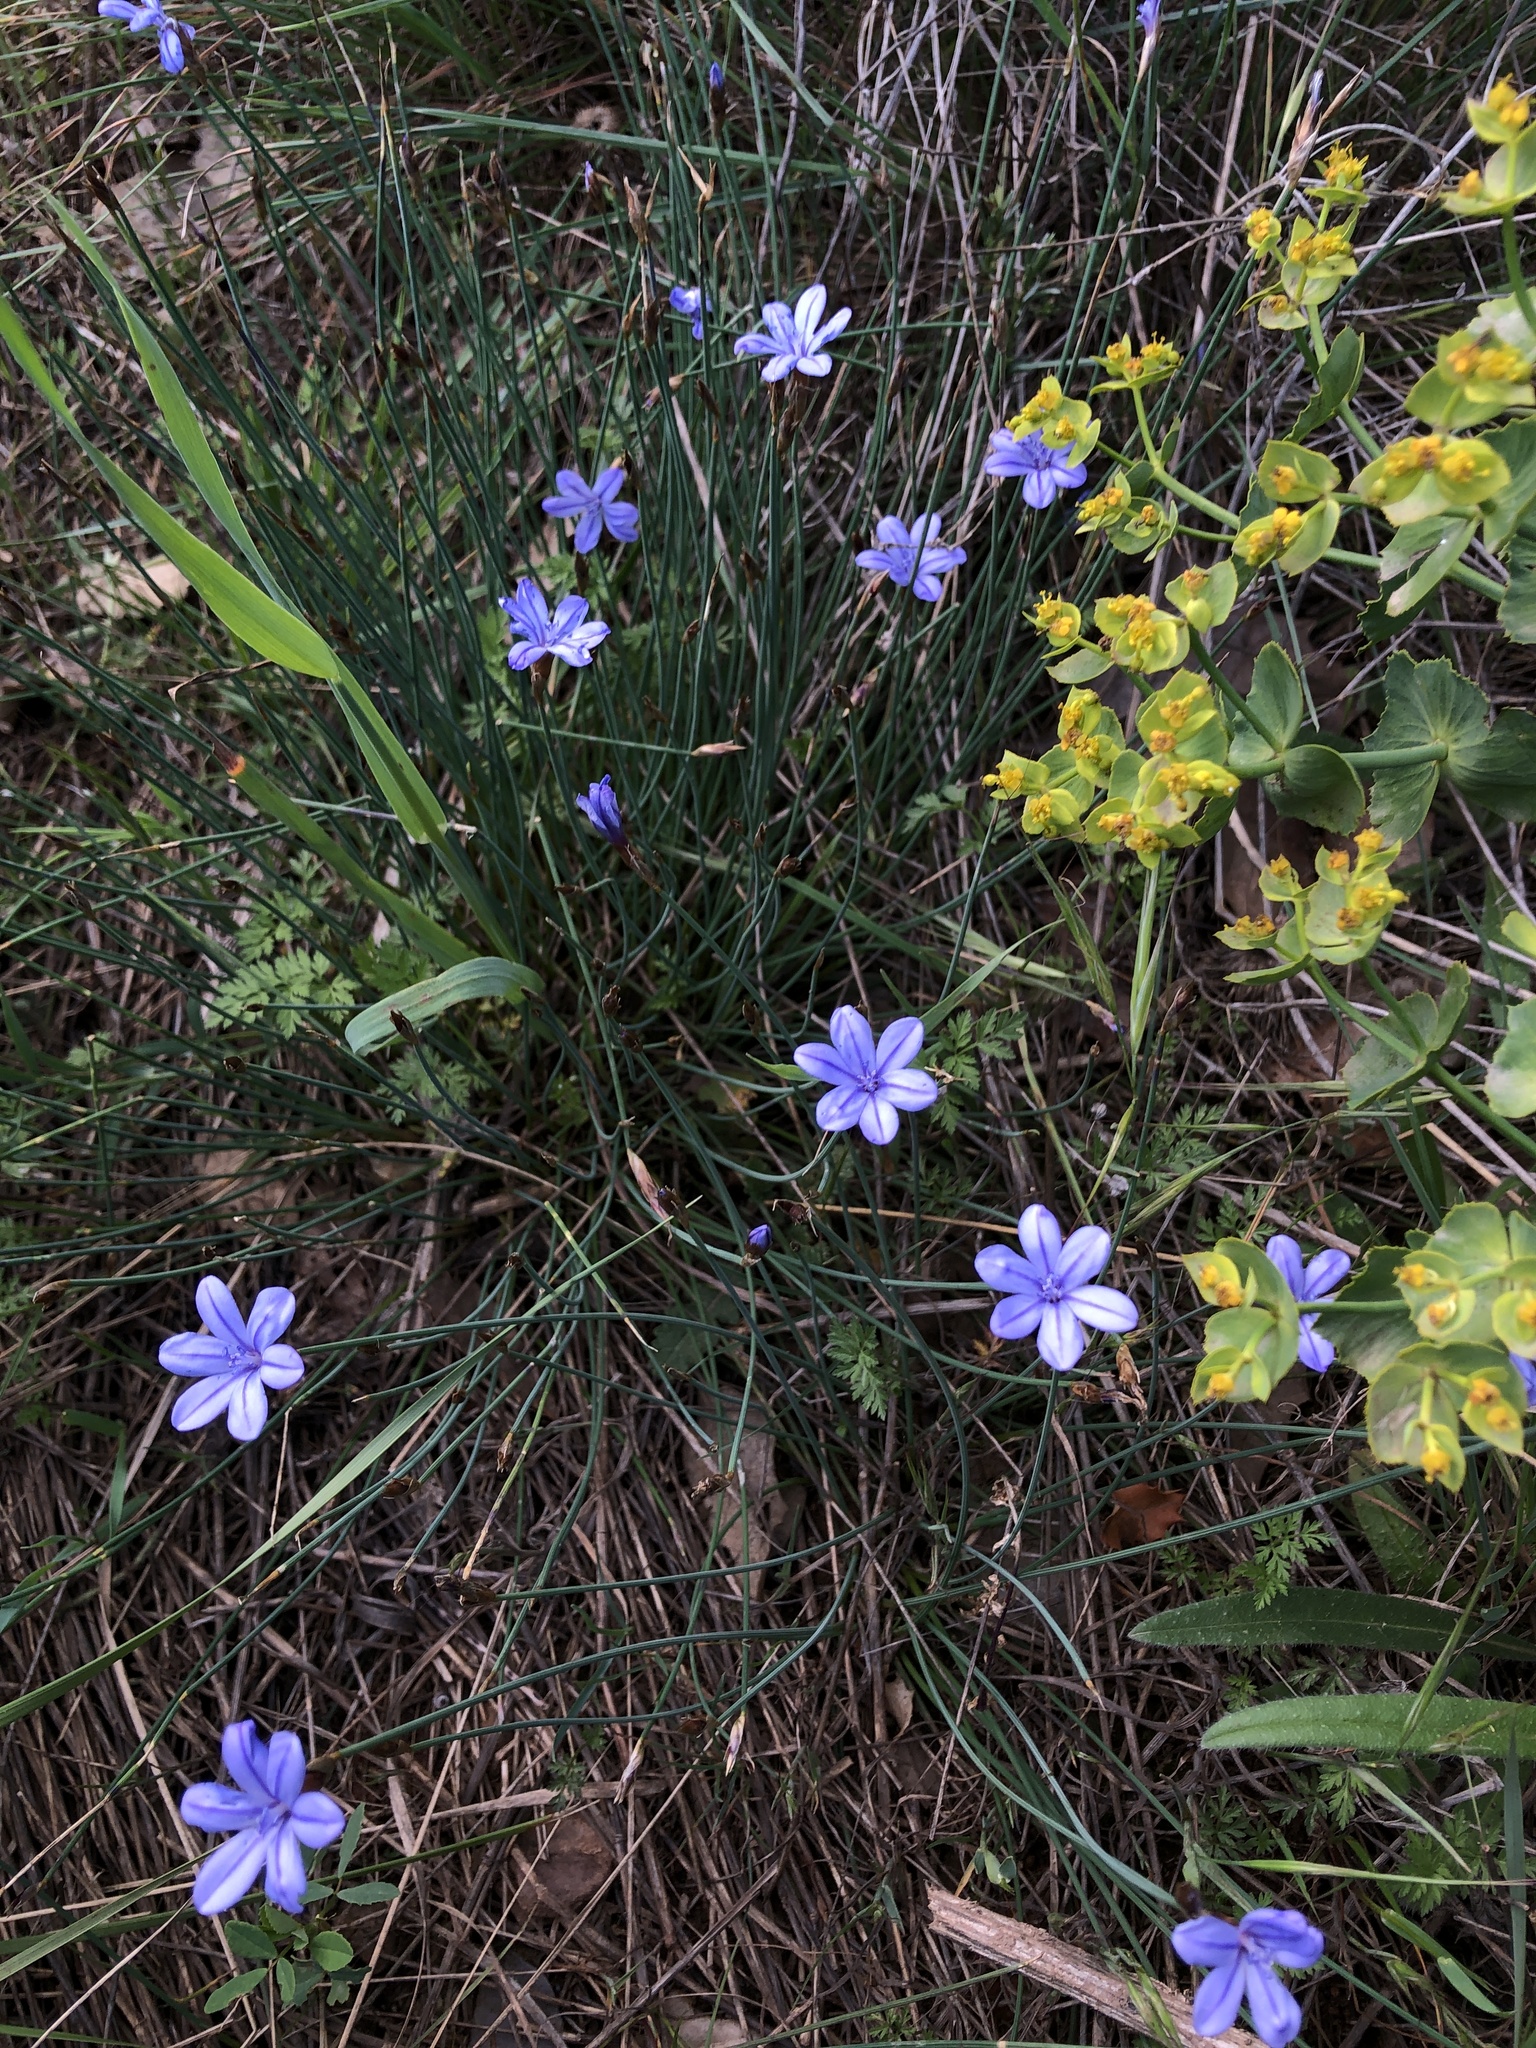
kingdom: Plantae
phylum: Tracheophyta
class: Liliopsida
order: Asparagales
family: Asparagaceae
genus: Aphyllanthes
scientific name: Aphyllanthes monspeliensis
